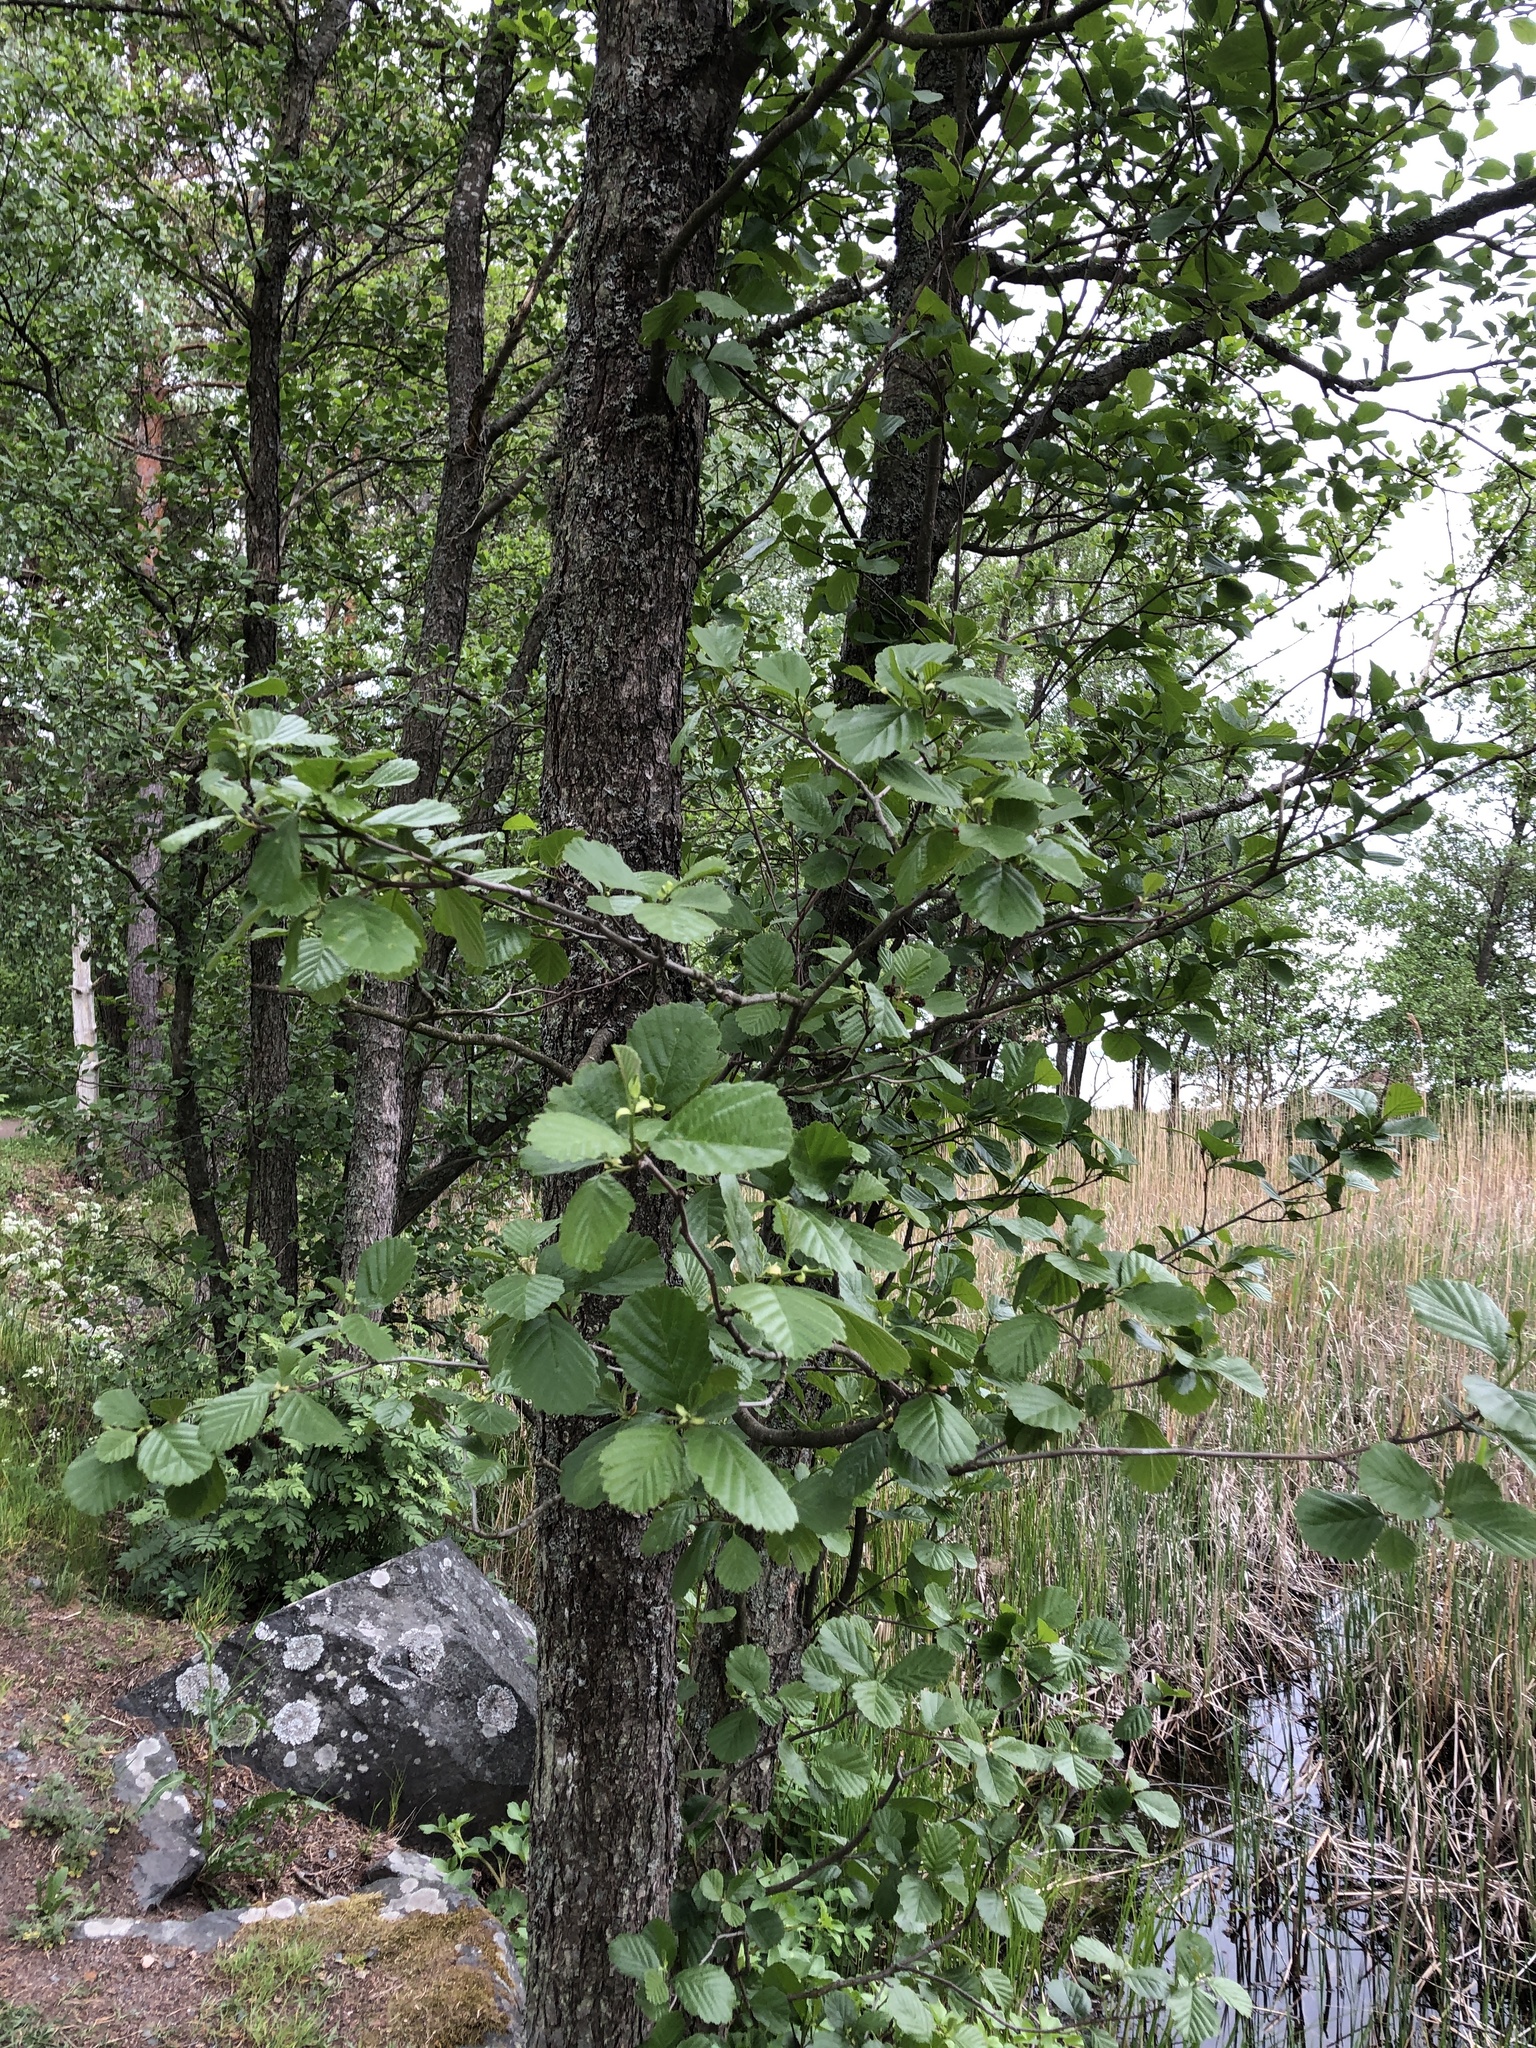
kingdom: Plantae
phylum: Tracheophyta
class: Magnoliopsida
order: Fagales
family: Betulaceae
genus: Alnus
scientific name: Alnus glutinosa
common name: Black alder
